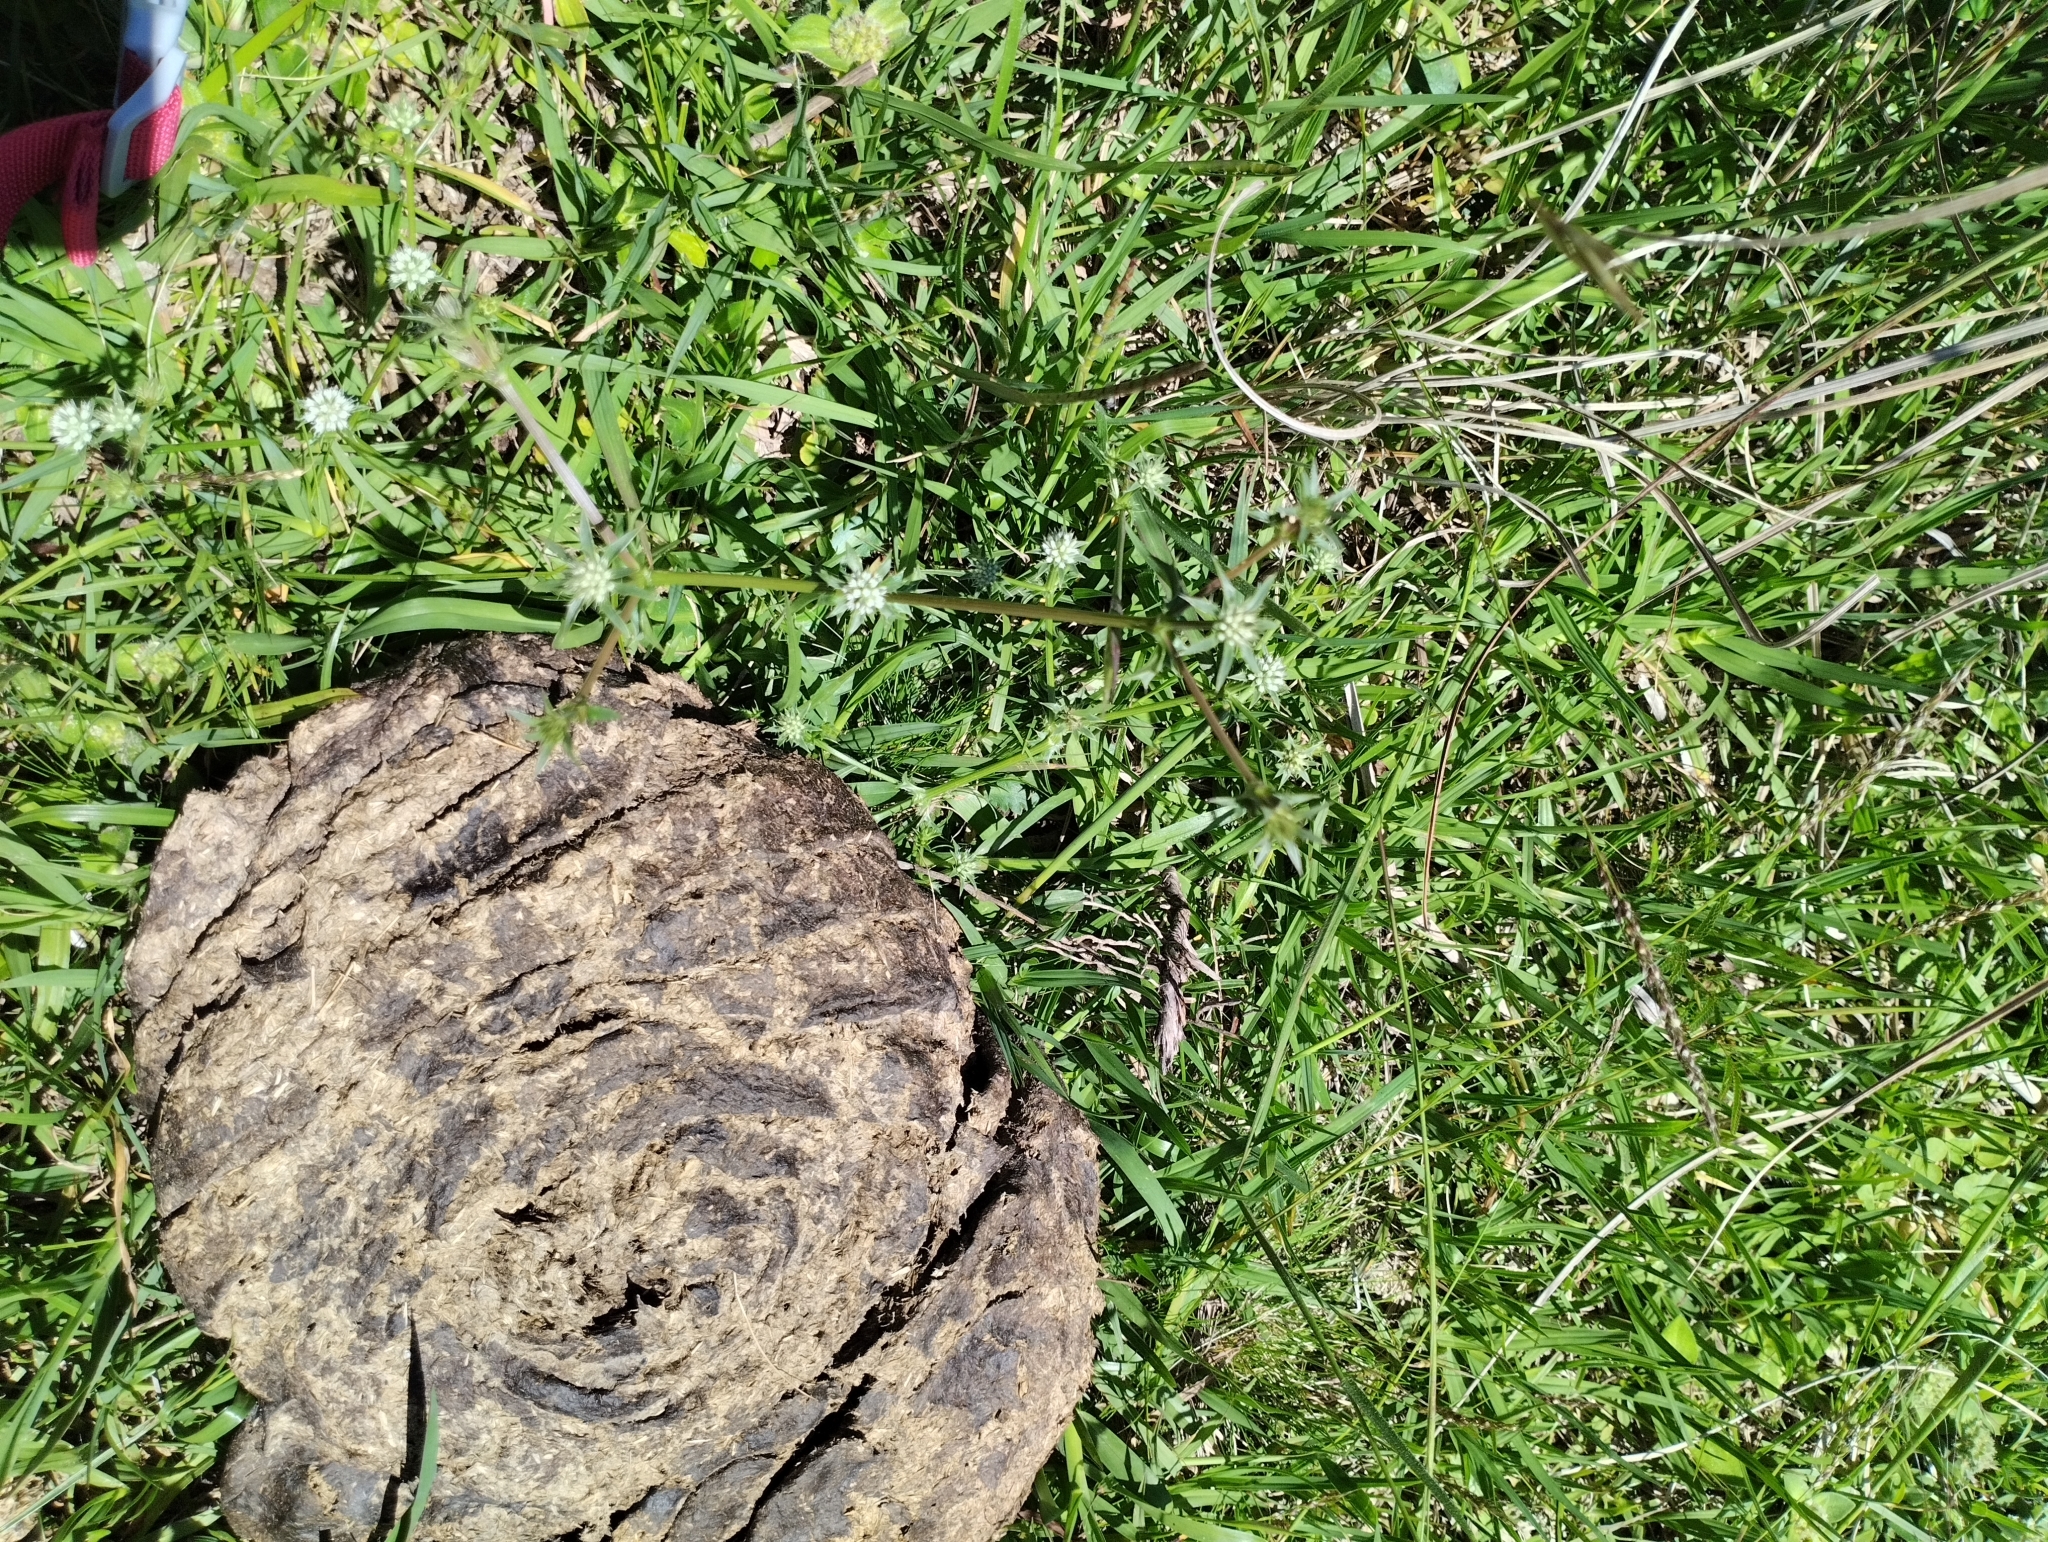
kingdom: Plantae
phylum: Tracheophyta
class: Magnoliopsida
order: Apiales
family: Apiaceae
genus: Eryngium
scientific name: Eryngium nudicaule
